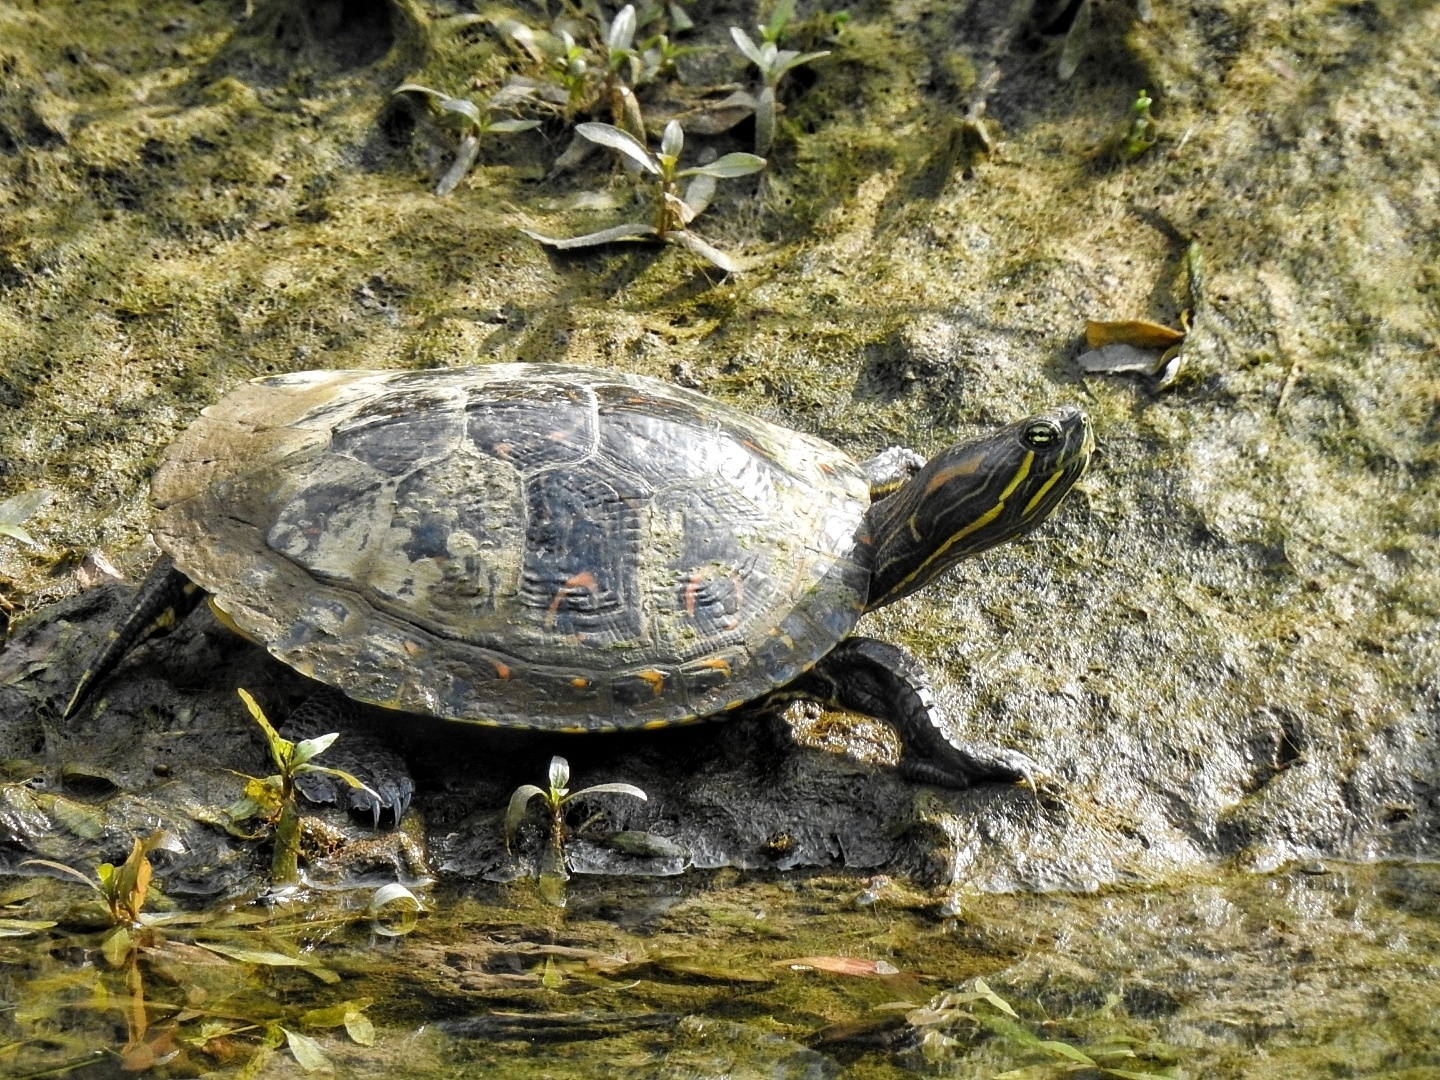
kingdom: Animalia
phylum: Chordata
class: Testudines
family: Emydidae
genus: Trachemys
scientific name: Trachemys venusta
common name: Mesoamerican slider
